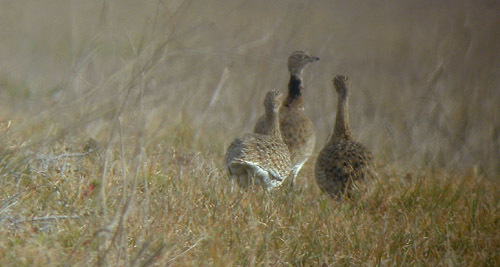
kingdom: Animalia
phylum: Chordata
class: Aves
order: Otidiformes
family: Otididae
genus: Tetrax
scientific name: Tetrax tetrax
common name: Little bustard
